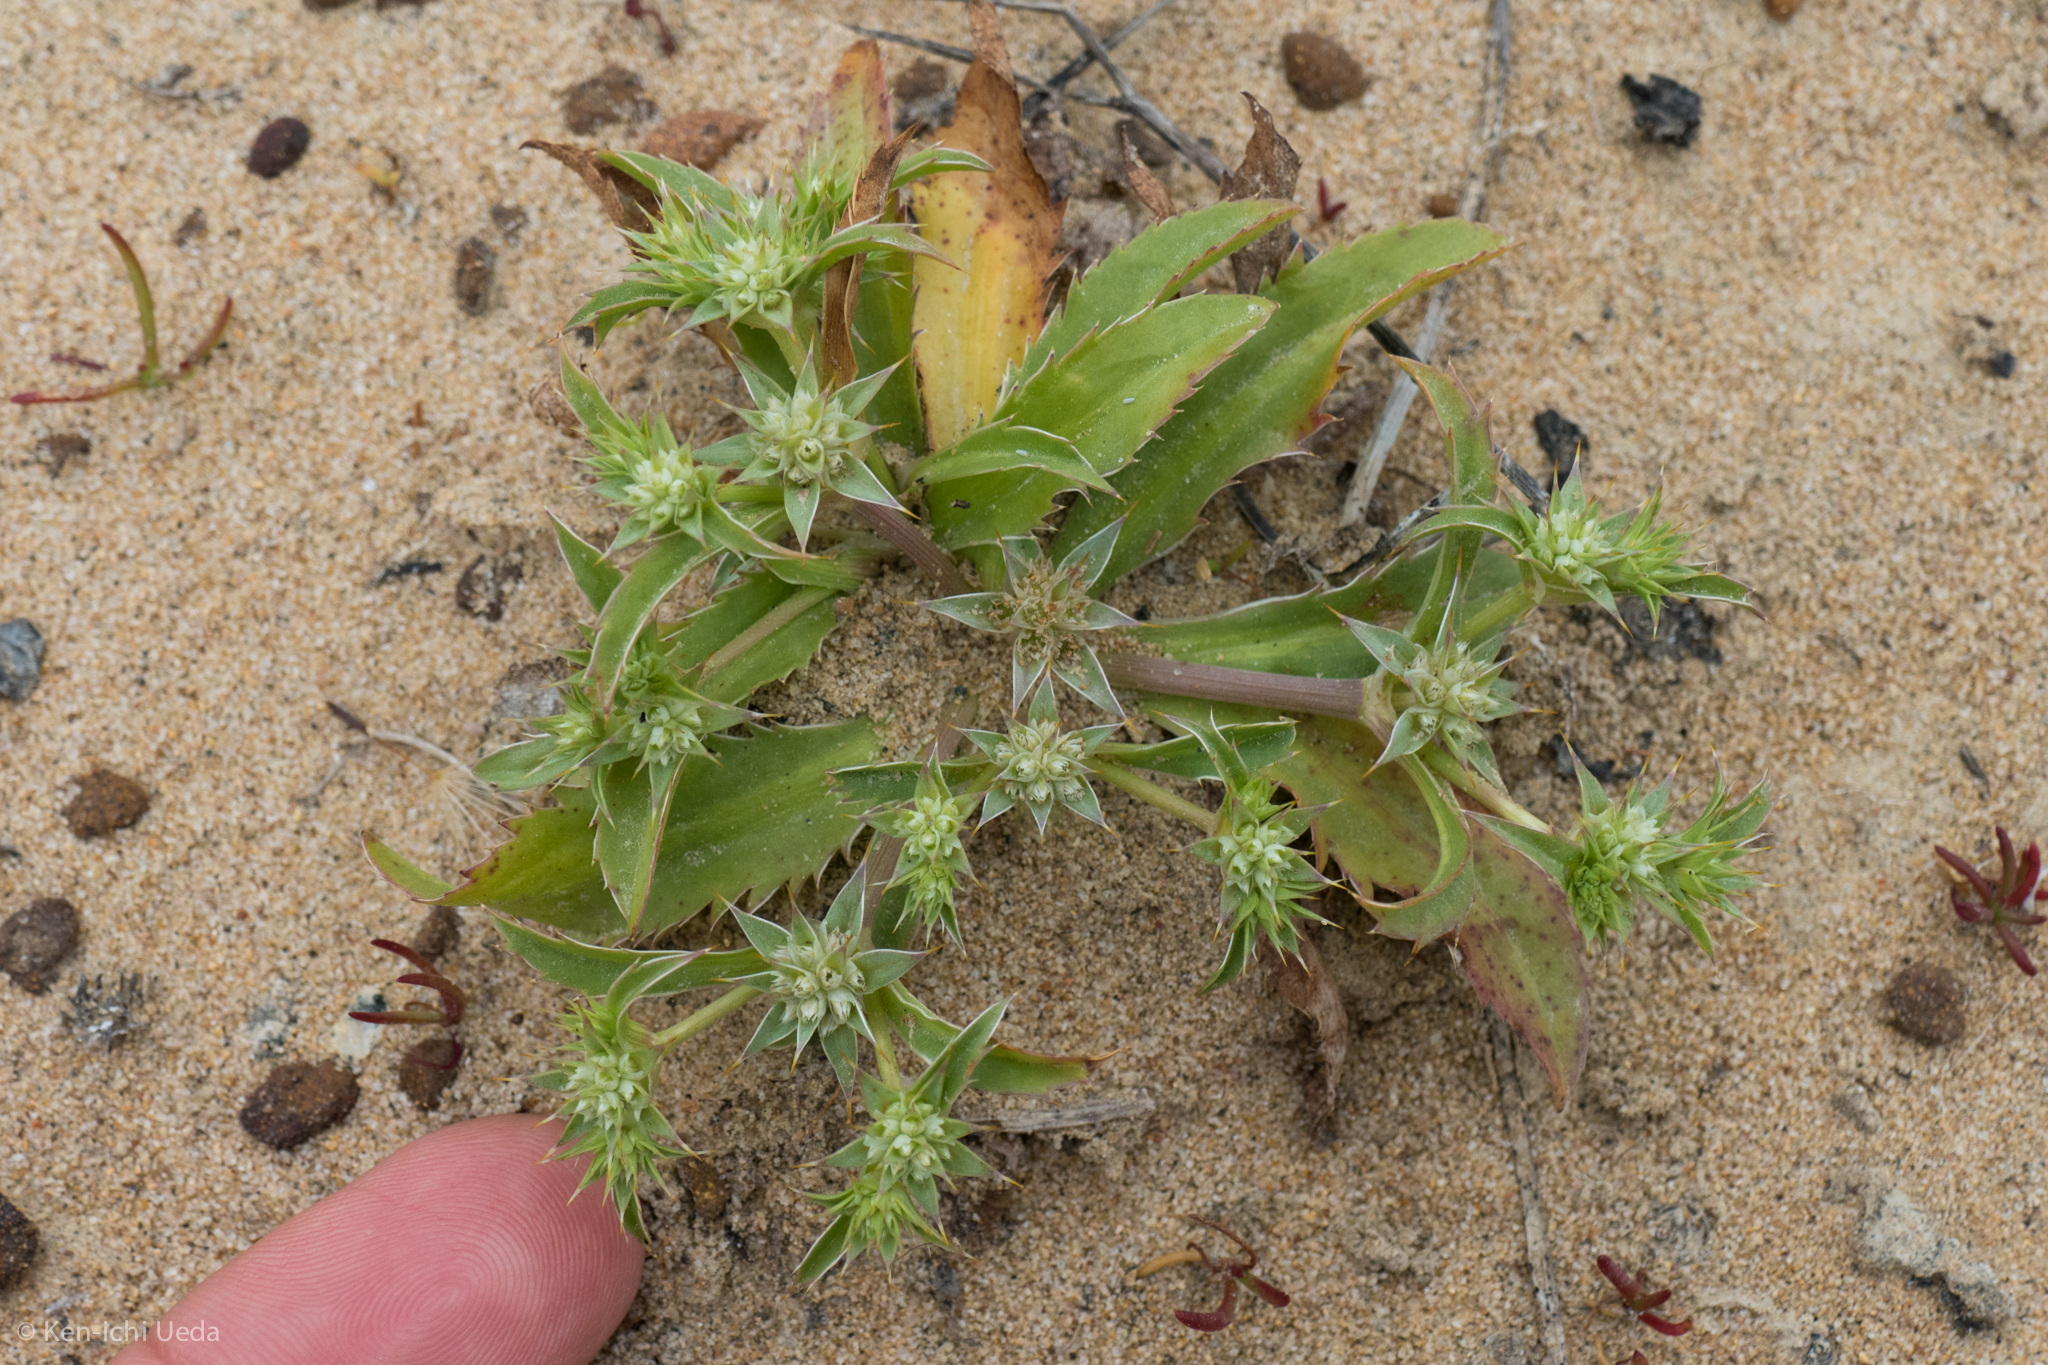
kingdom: Plantae
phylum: Tracheophyta
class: Magnoliopsida
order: Apiales
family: Apiaceae
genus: Eryngium
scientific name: Eryngium armatum
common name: Coyote thistle
